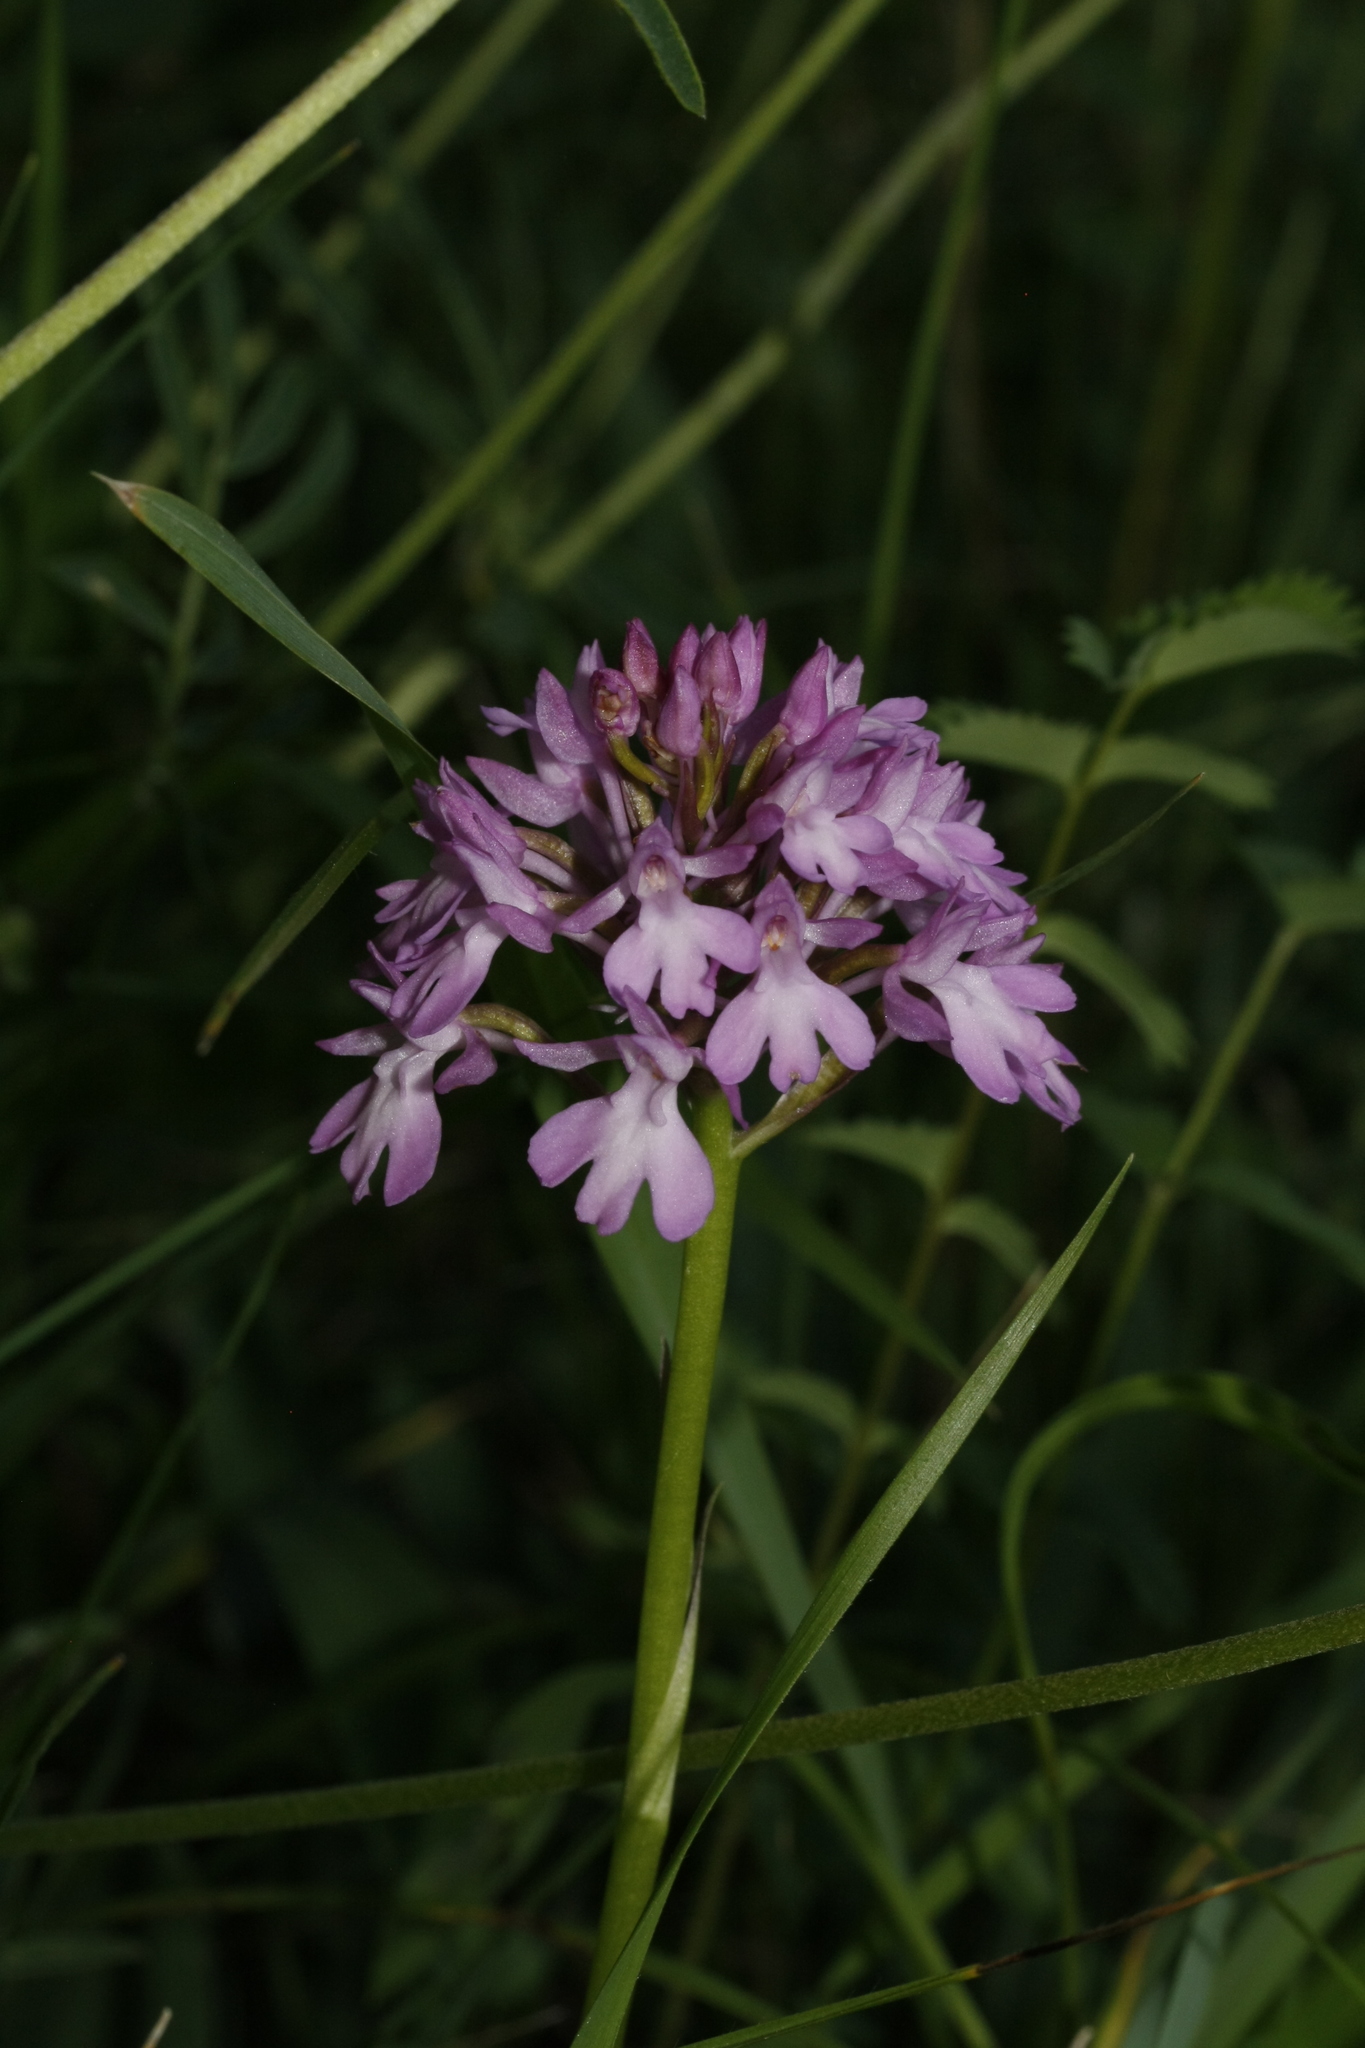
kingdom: Plantae
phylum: Tracheophyta
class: Liliopsida
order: Asparagales
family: Orchidaceae
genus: Anacamptis
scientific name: Anacamptis pyramidalis
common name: Pyramidal orchid
